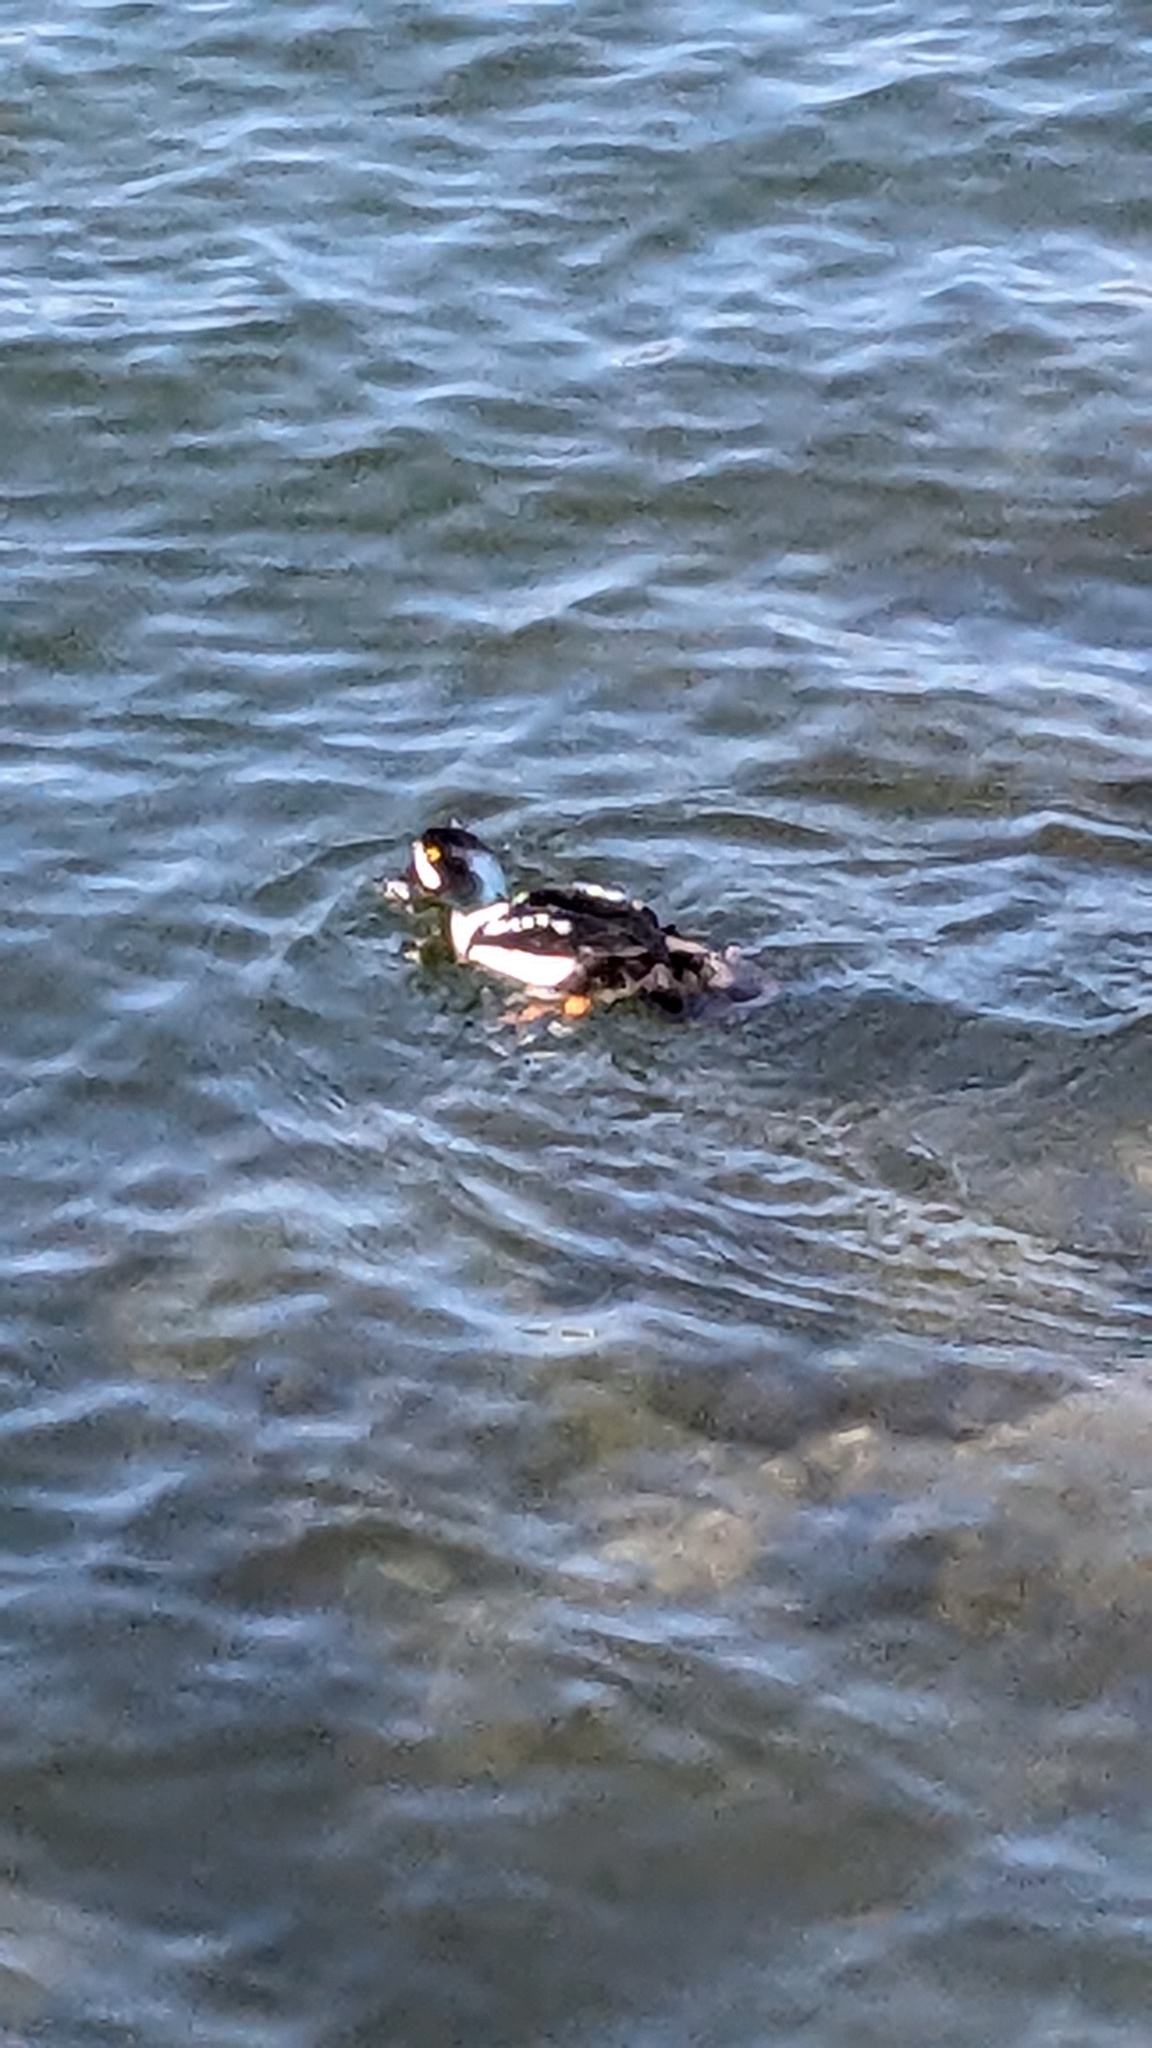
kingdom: Animalia
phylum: Chordata
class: Aves
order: Anseriformes
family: Anatidae
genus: Bucephala
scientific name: Bucephala islandica
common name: Barrow's goldeneye
